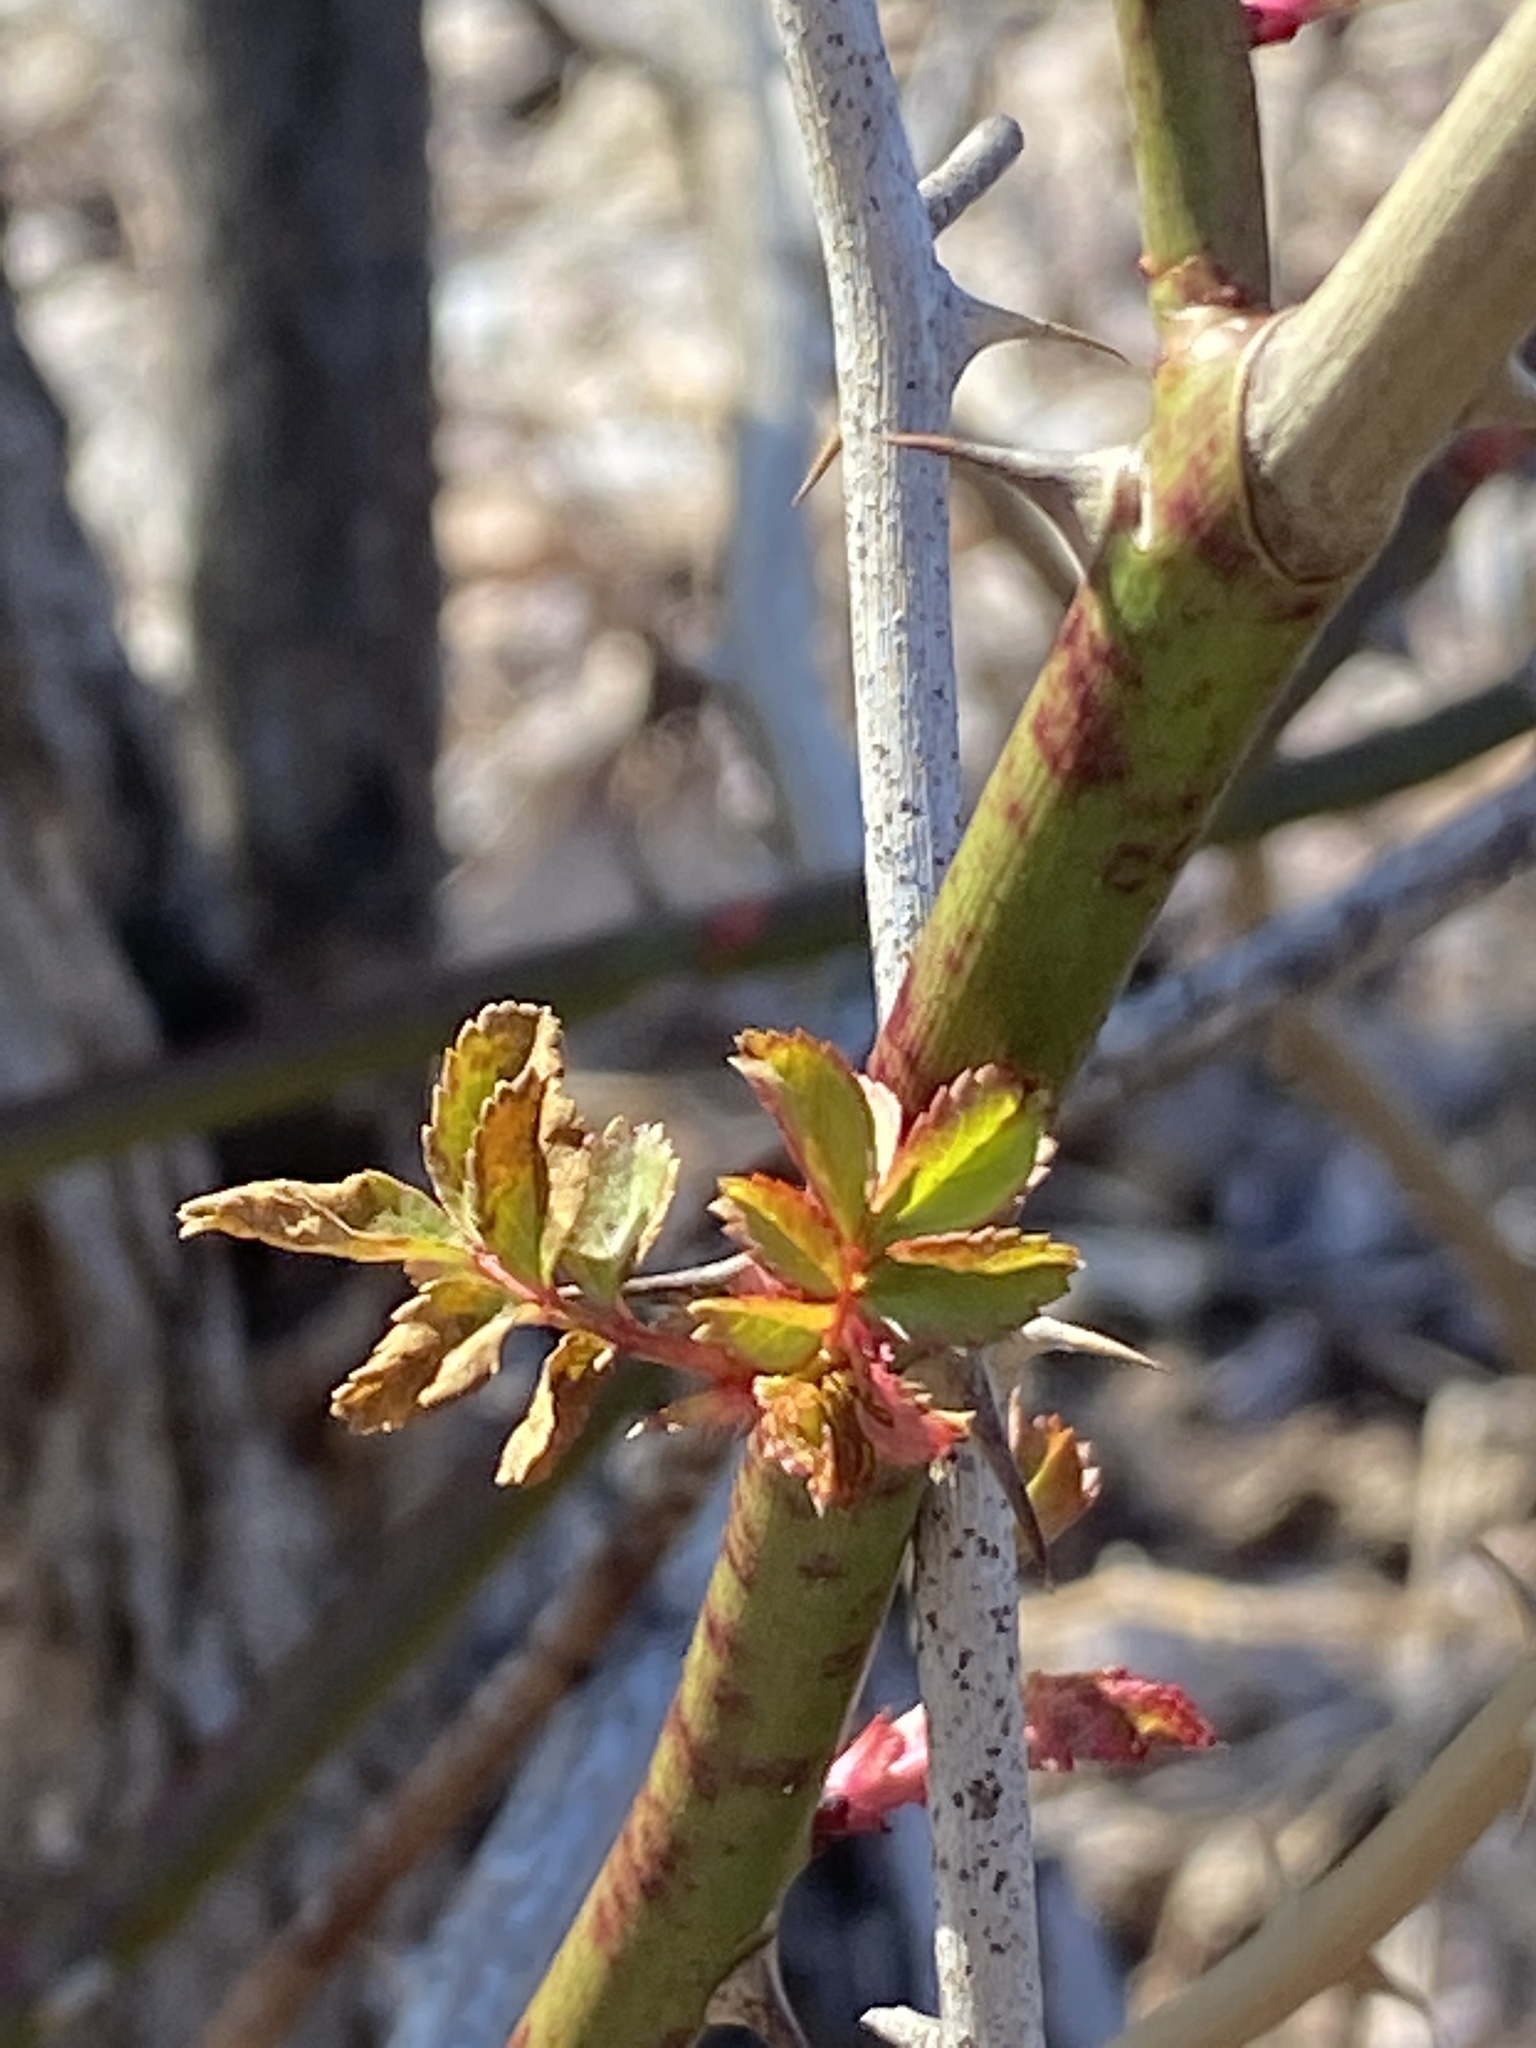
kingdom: Plantae
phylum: Tracheophyta
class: Magnoliopsida
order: Rosales
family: Rosaceae
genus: Rosa
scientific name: Rosa multiflora
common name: Multiflora rose
